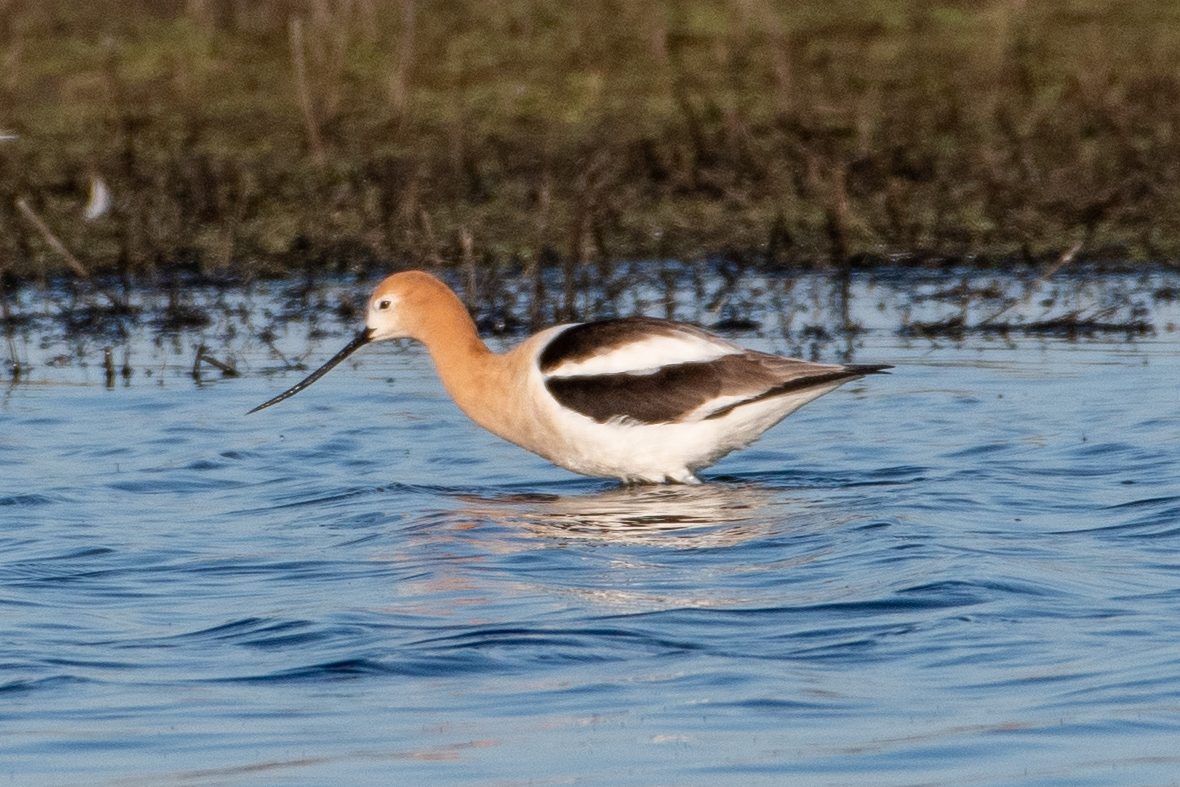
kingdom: Animalia
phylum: Chordata
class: Aves
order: Charadriiformes
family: Recurvirostridae
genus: Recurvirostra
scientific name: Recurvirostra americana
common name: American avocet
